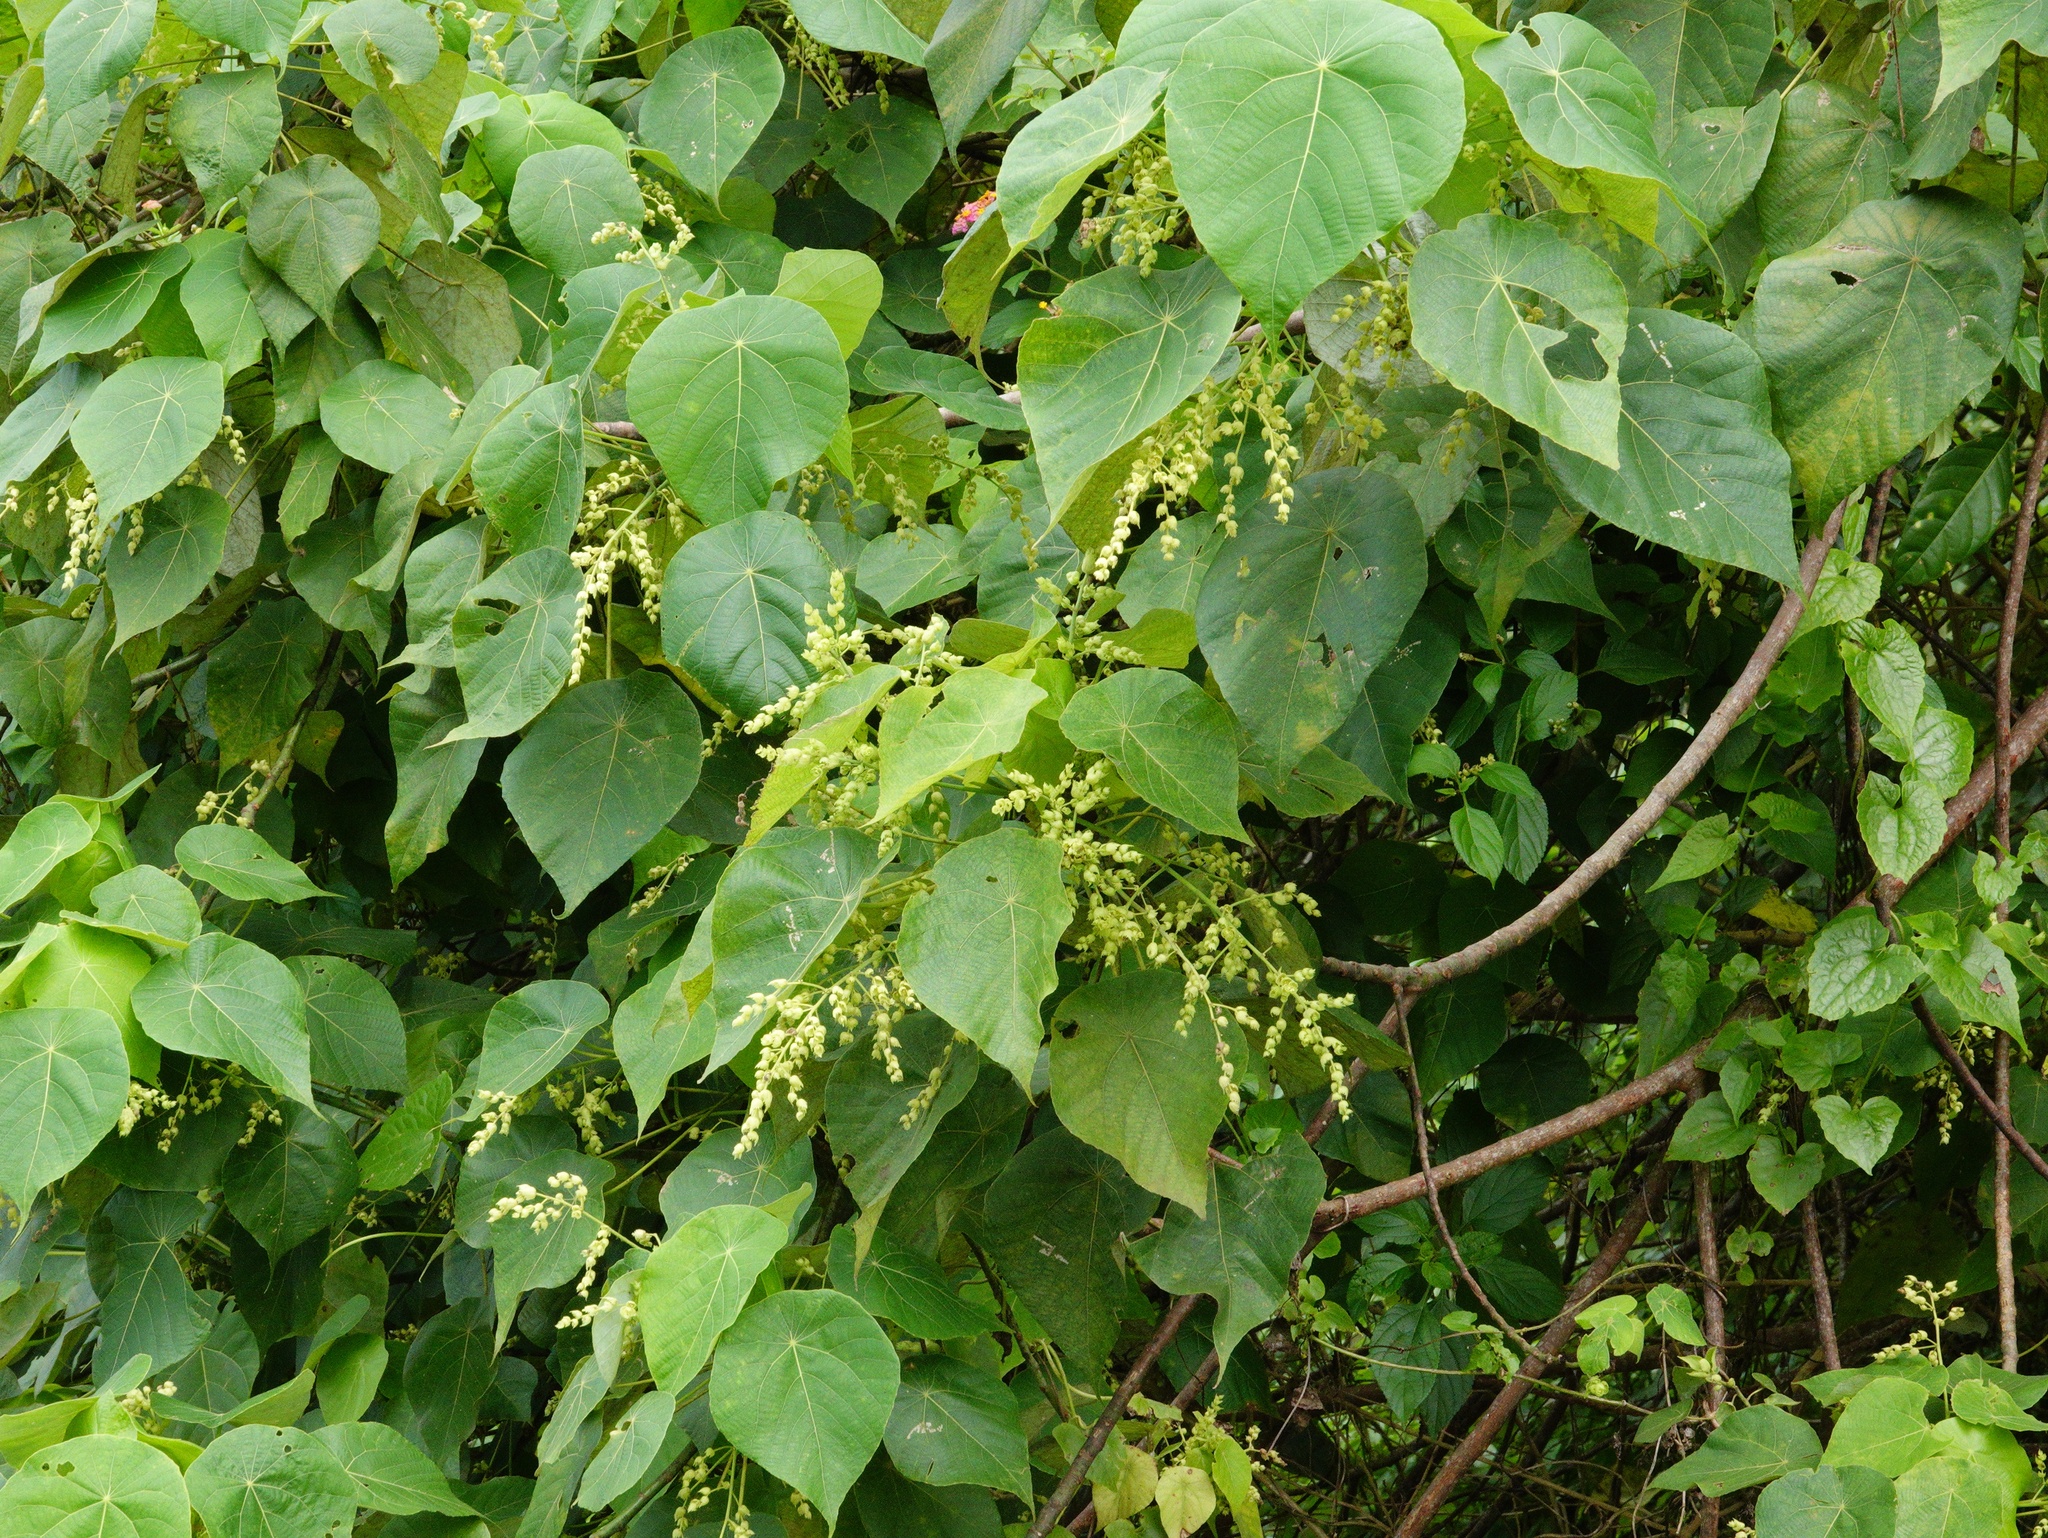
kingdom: Plantae
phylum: Tracheophyta
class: Magnoliopsida
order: Malpighiales
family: Euphorbiaceae
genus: Macaranga
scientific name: Macaranga tanarius
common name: Parasol leaf tree
